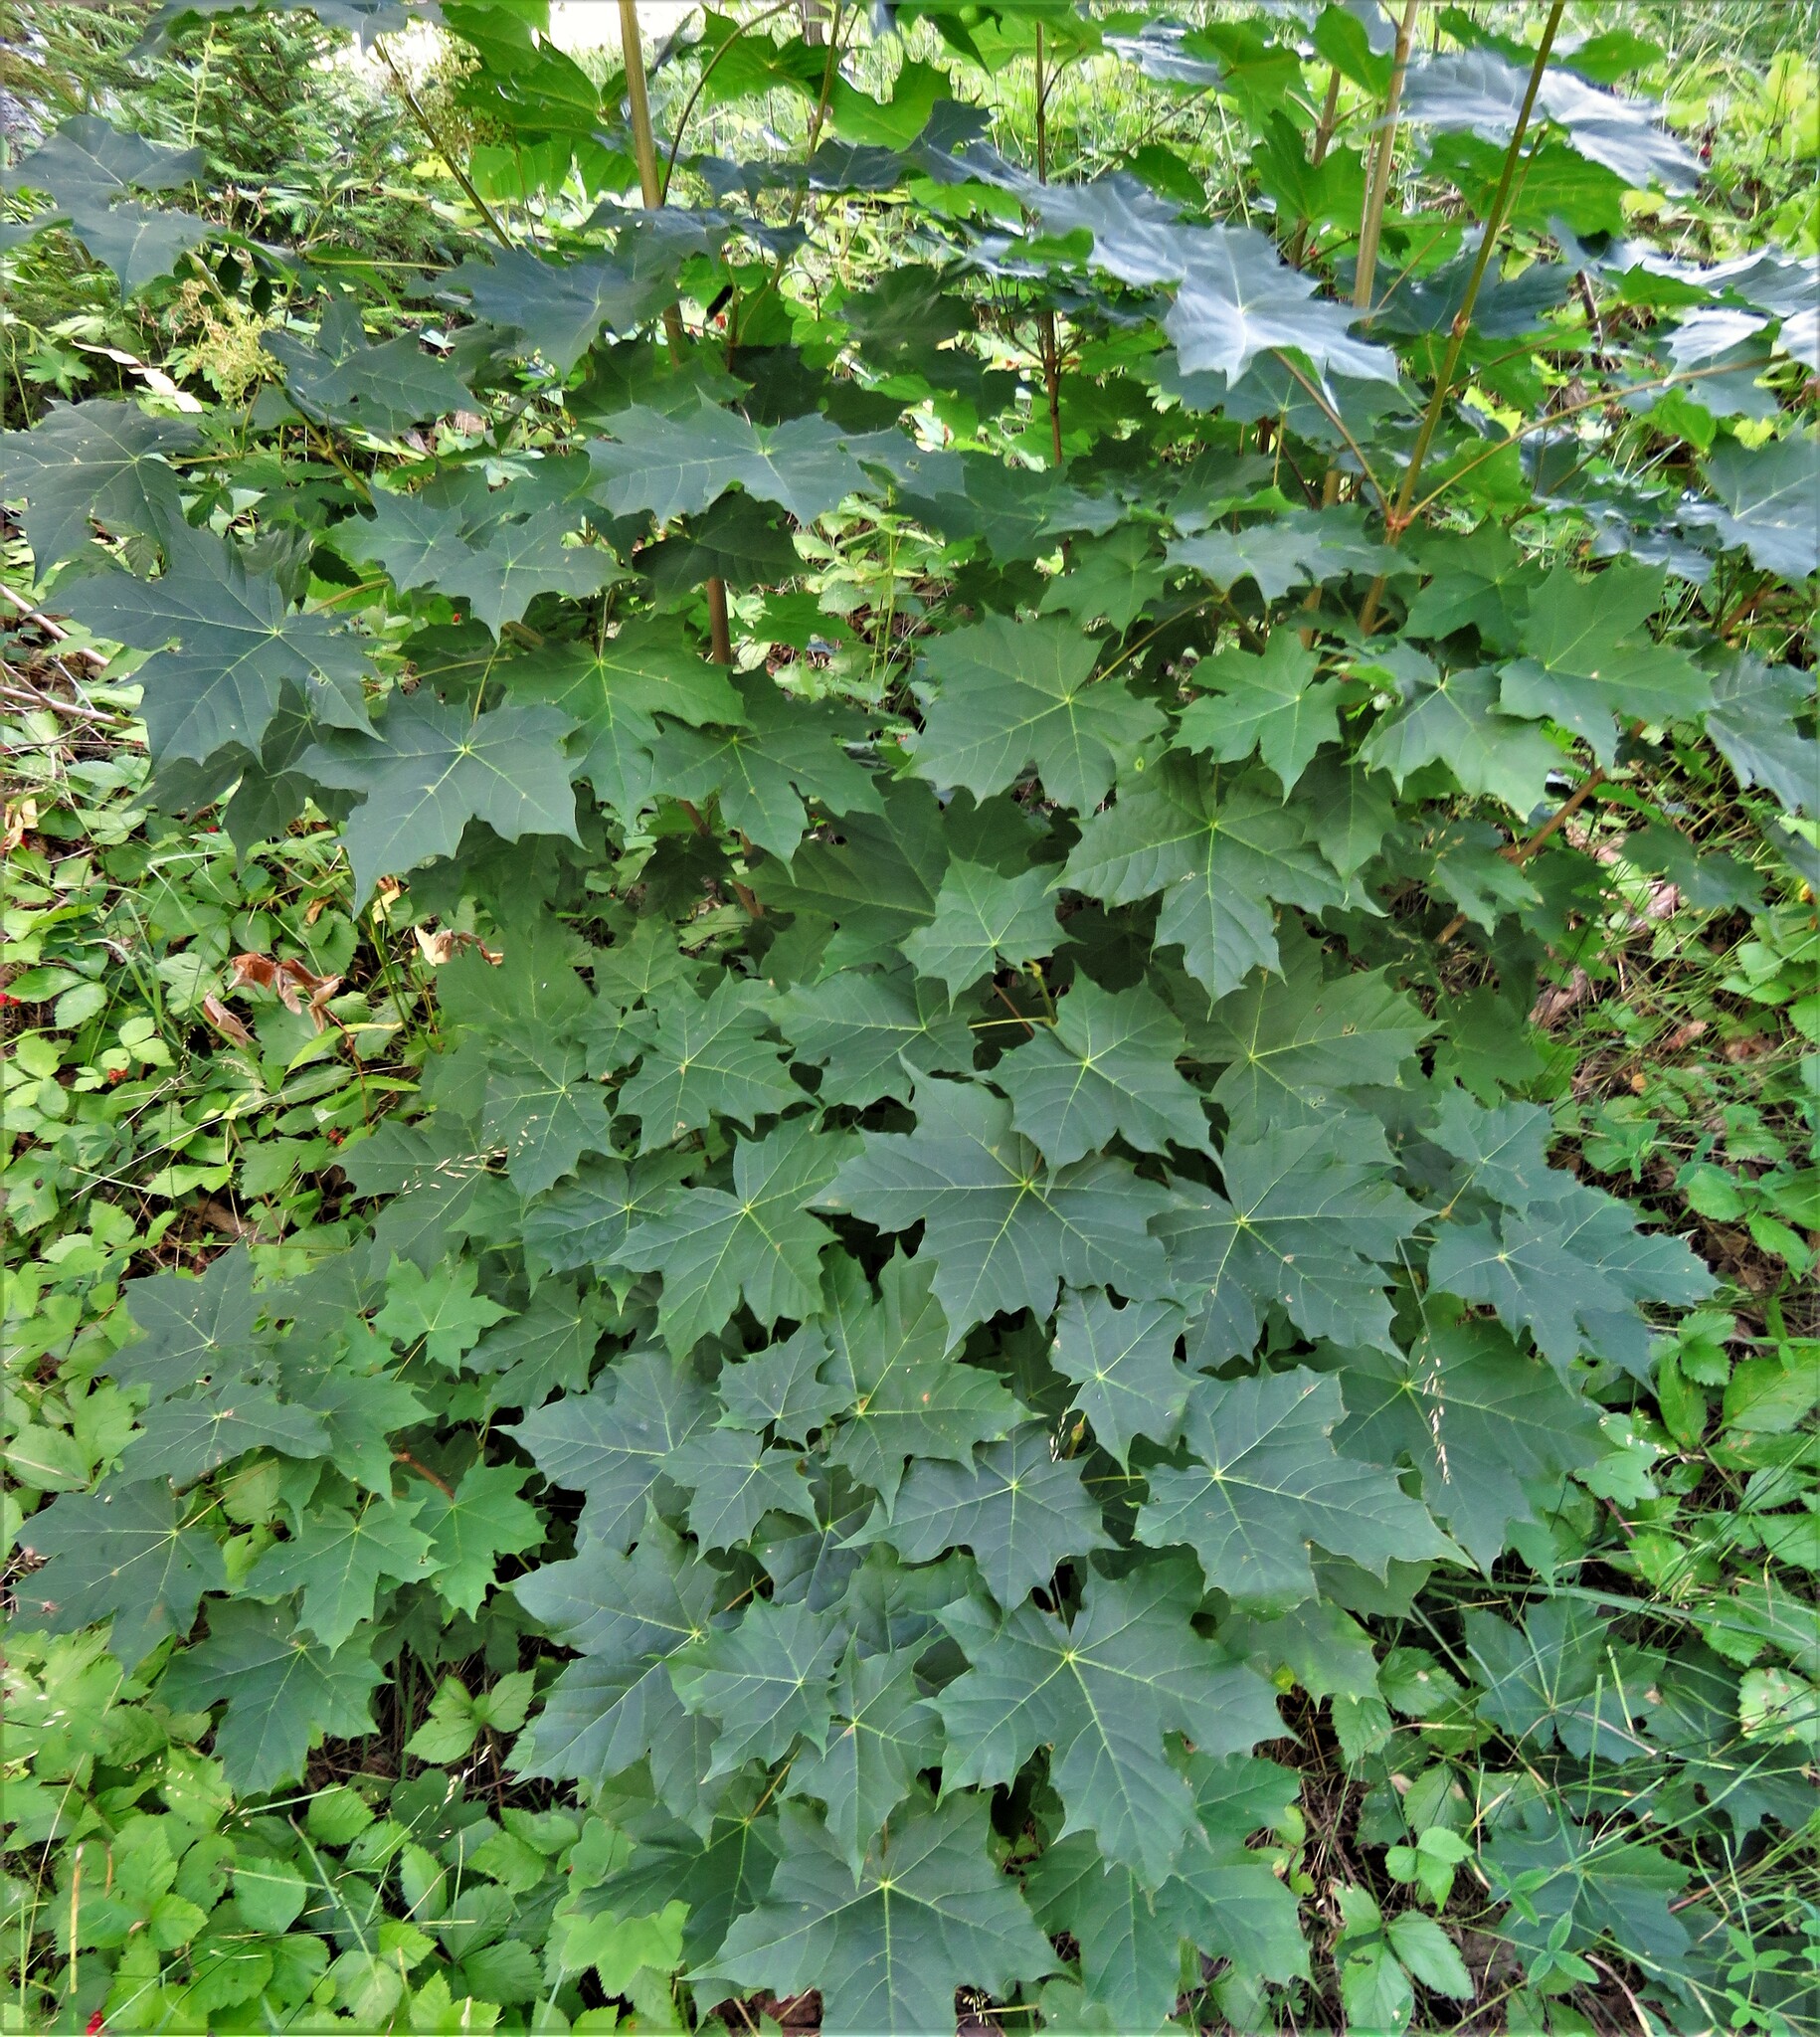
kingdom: Plantae
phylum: Tracheophyta
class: Magnoliopsida
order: Sapindales
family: Sapindaceae
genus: Acer
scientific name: Acer platanoides
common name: Norway maple
